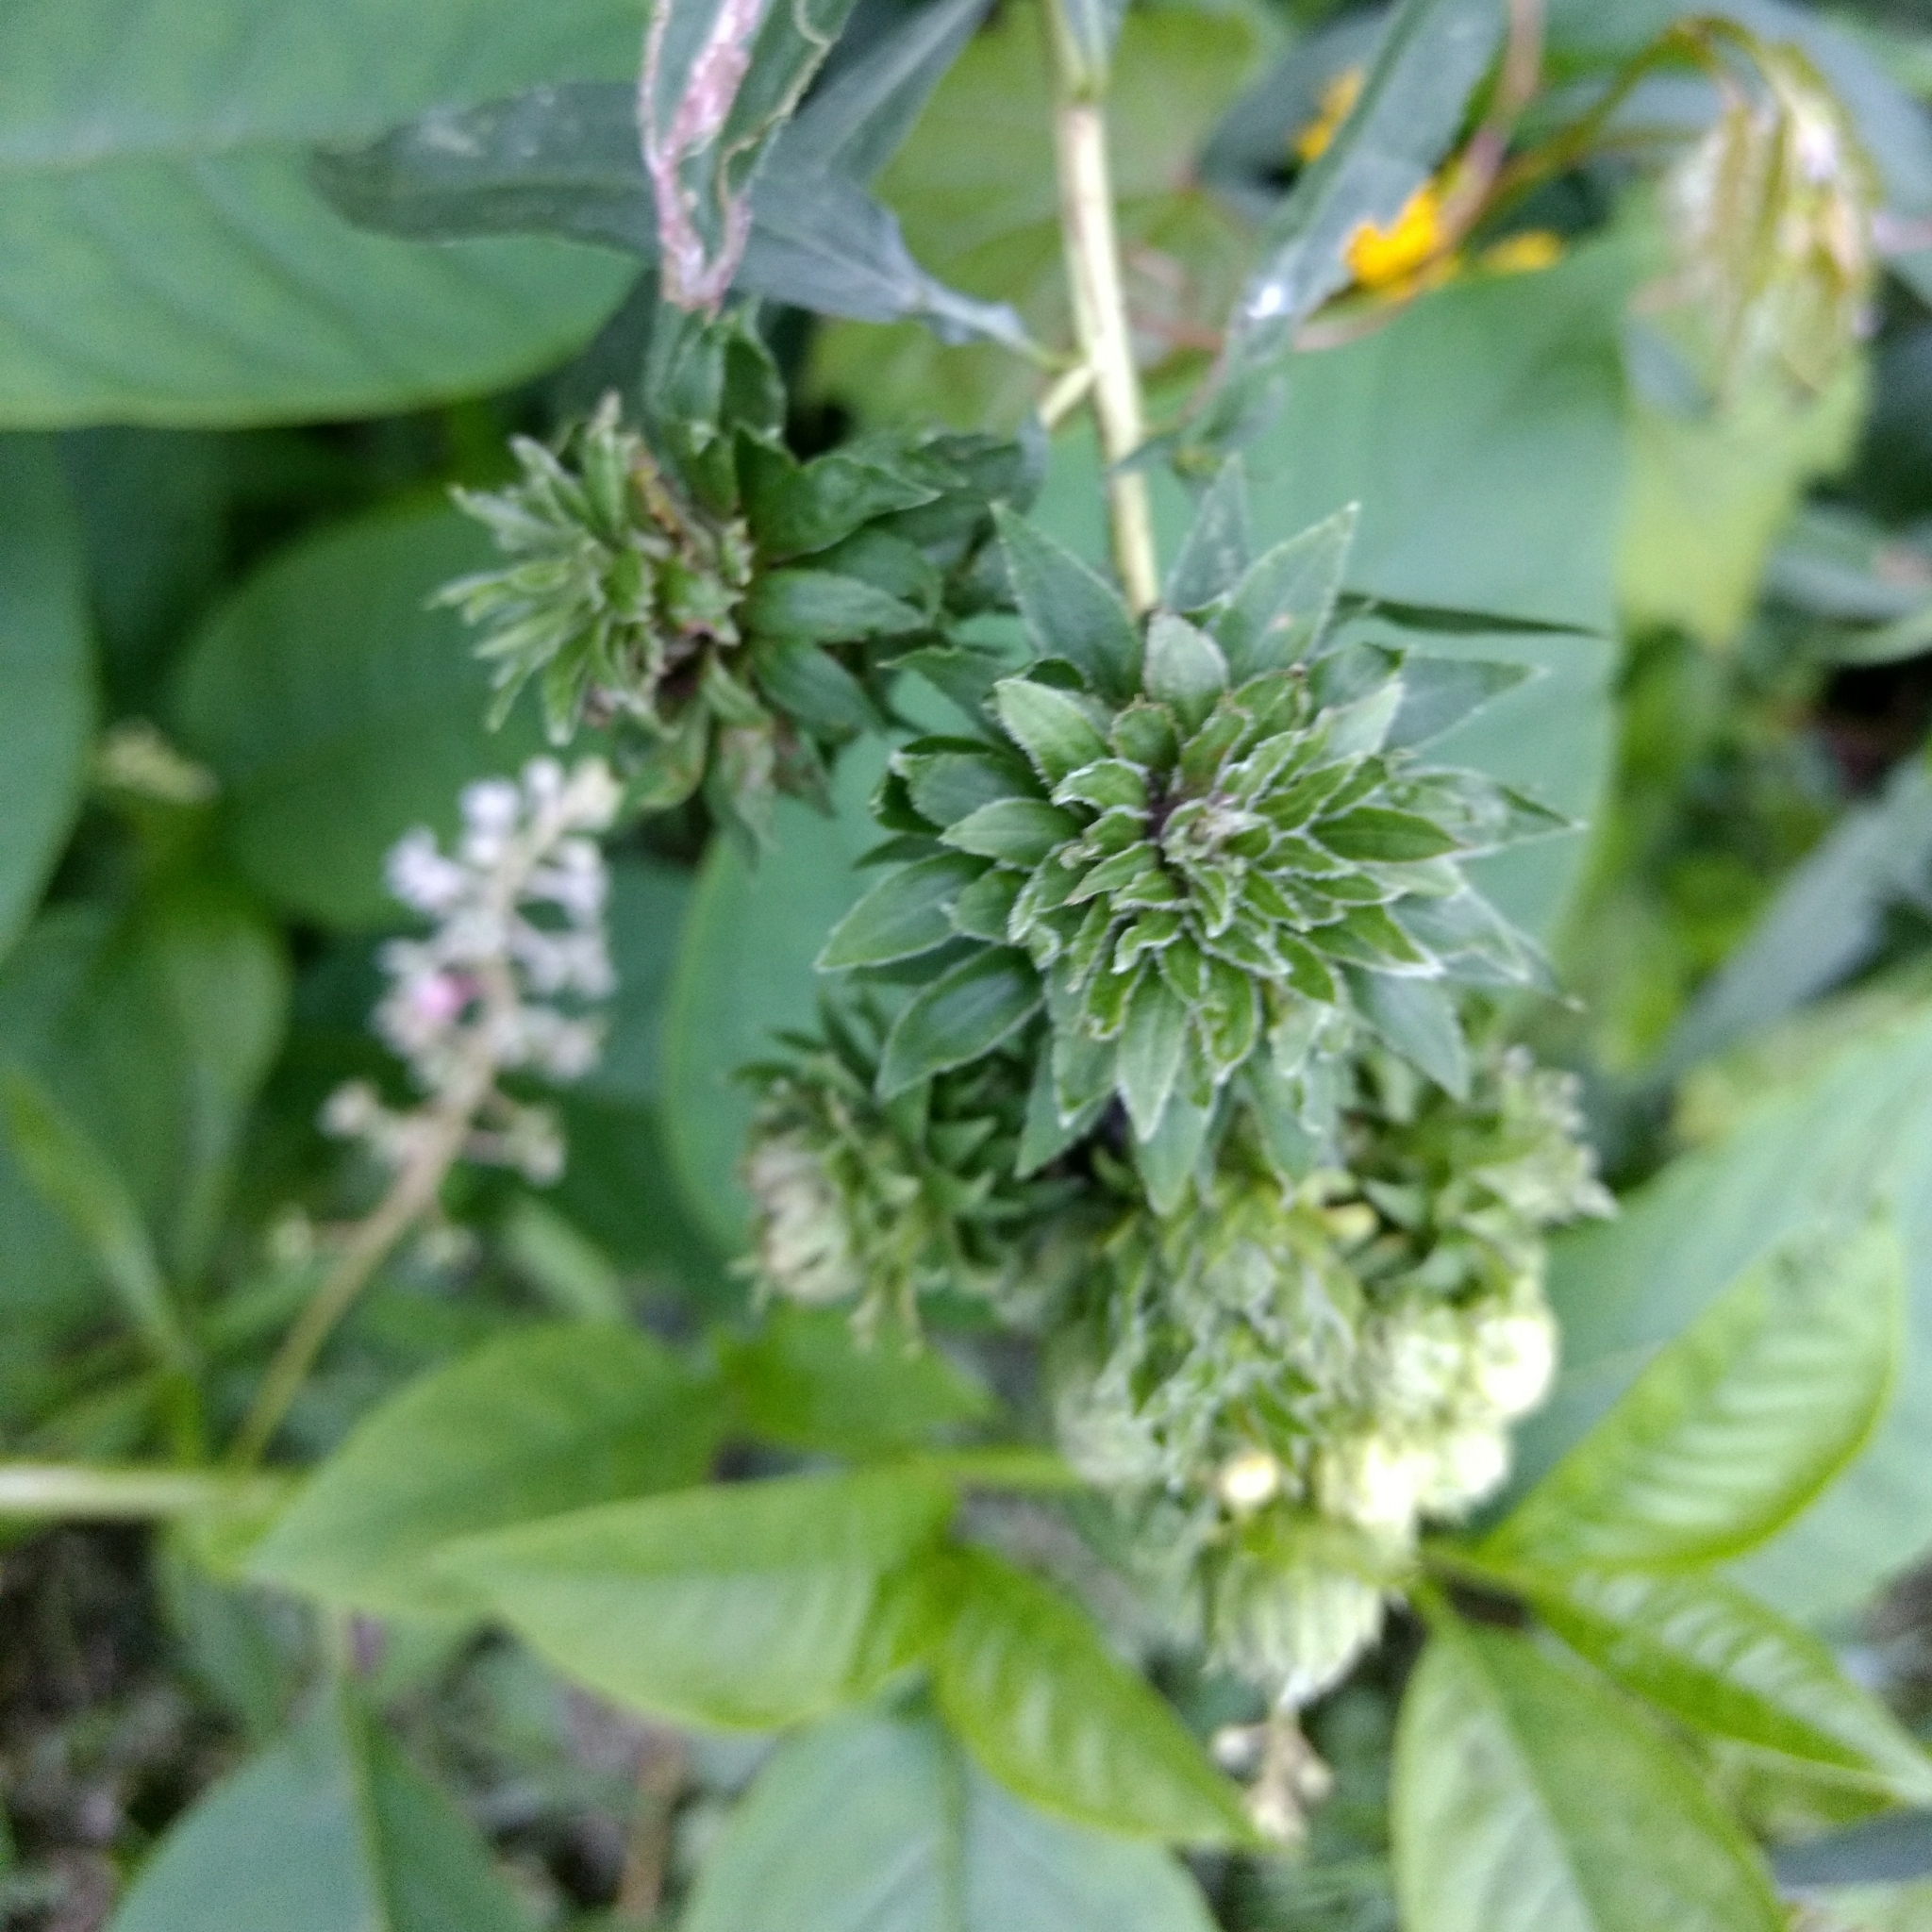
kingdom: Animalia
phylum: Arthropoda
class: Insecta
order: Diptera
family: Tephritidae
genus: Procecidochares
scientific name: Procecidochares atra
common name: Goldenrod brussels sprout gall fly
